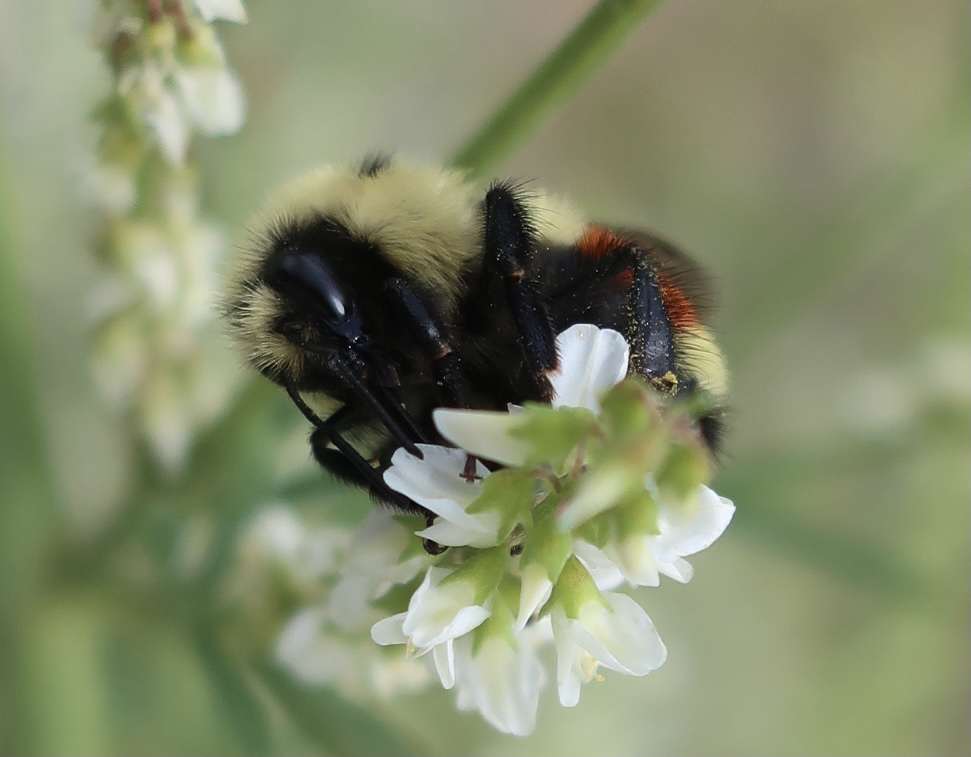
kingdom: Animalia
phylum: Arthropoda
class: Insecta
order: Hymenoptera
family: Apidae
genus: Bombus
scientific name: Bombus huntii
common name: Hunt bumble bee
